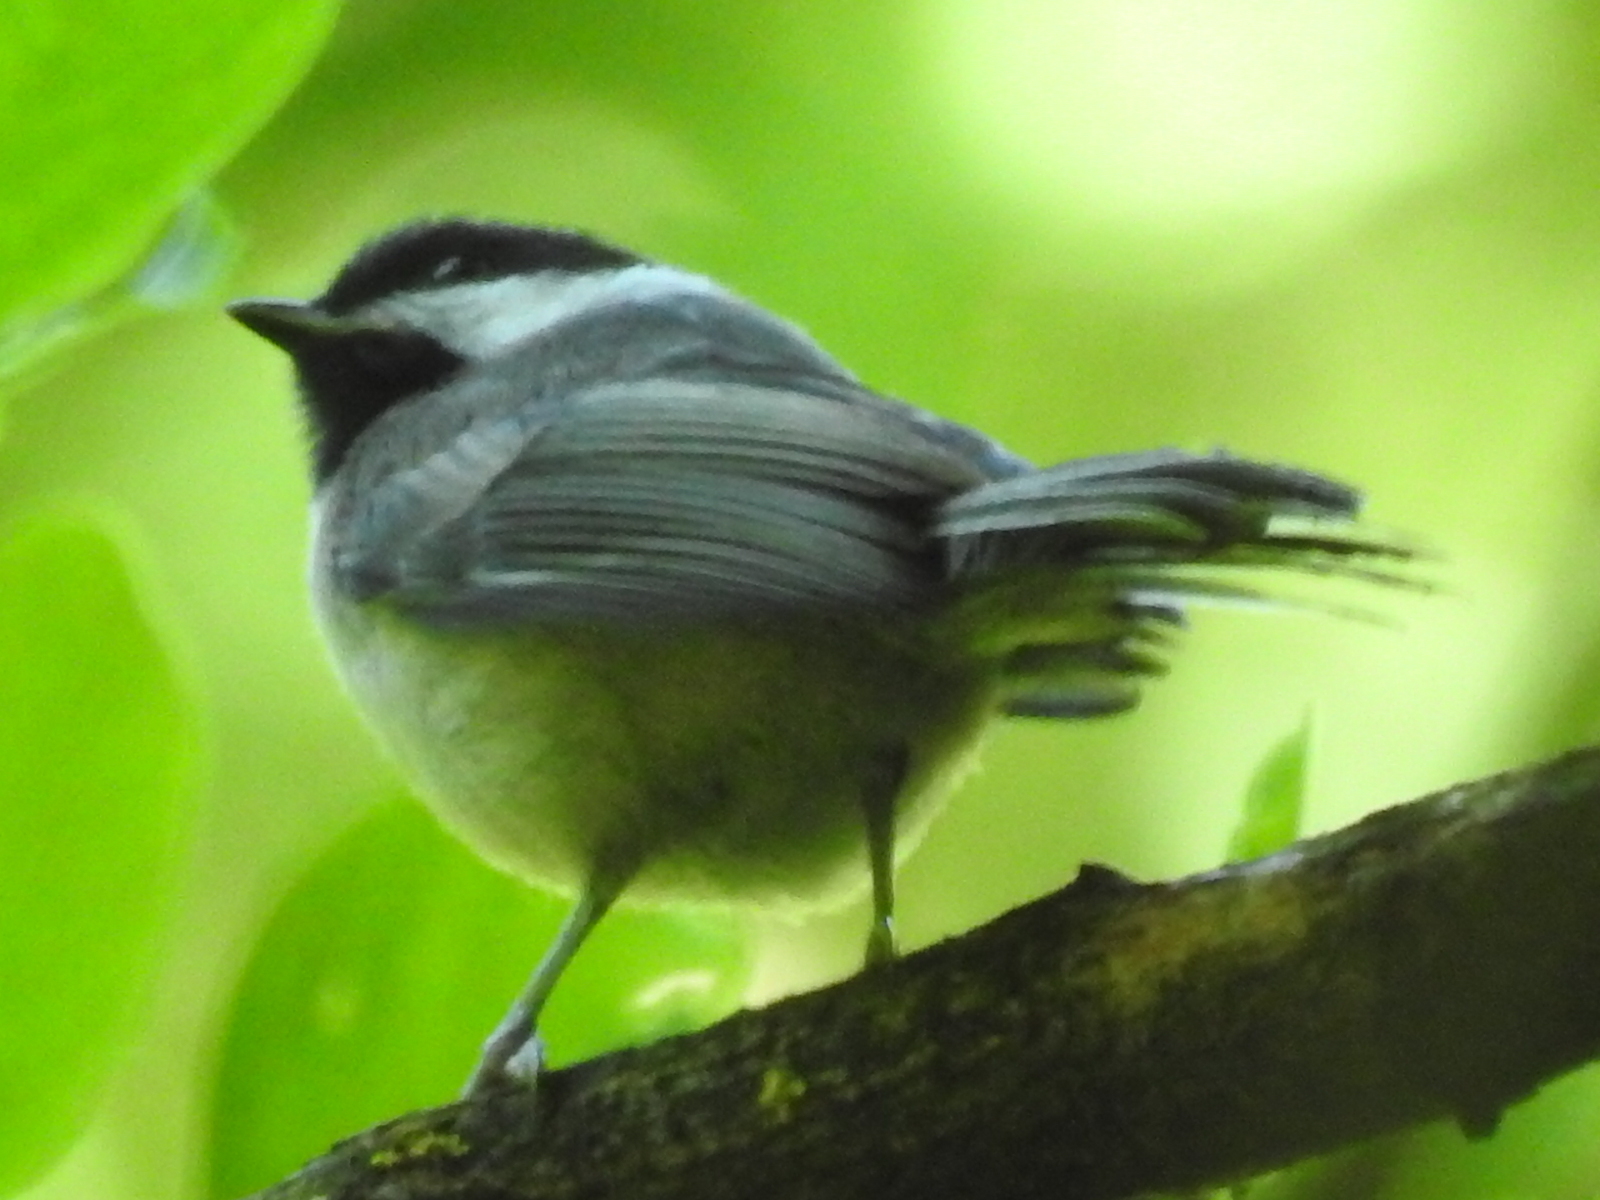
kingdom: Animalia
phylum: Chordata
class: Aves
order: Passeriformes
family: Paridae
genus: Poecile
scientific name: Poecile atricapillus
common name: Black-capped chickadee
